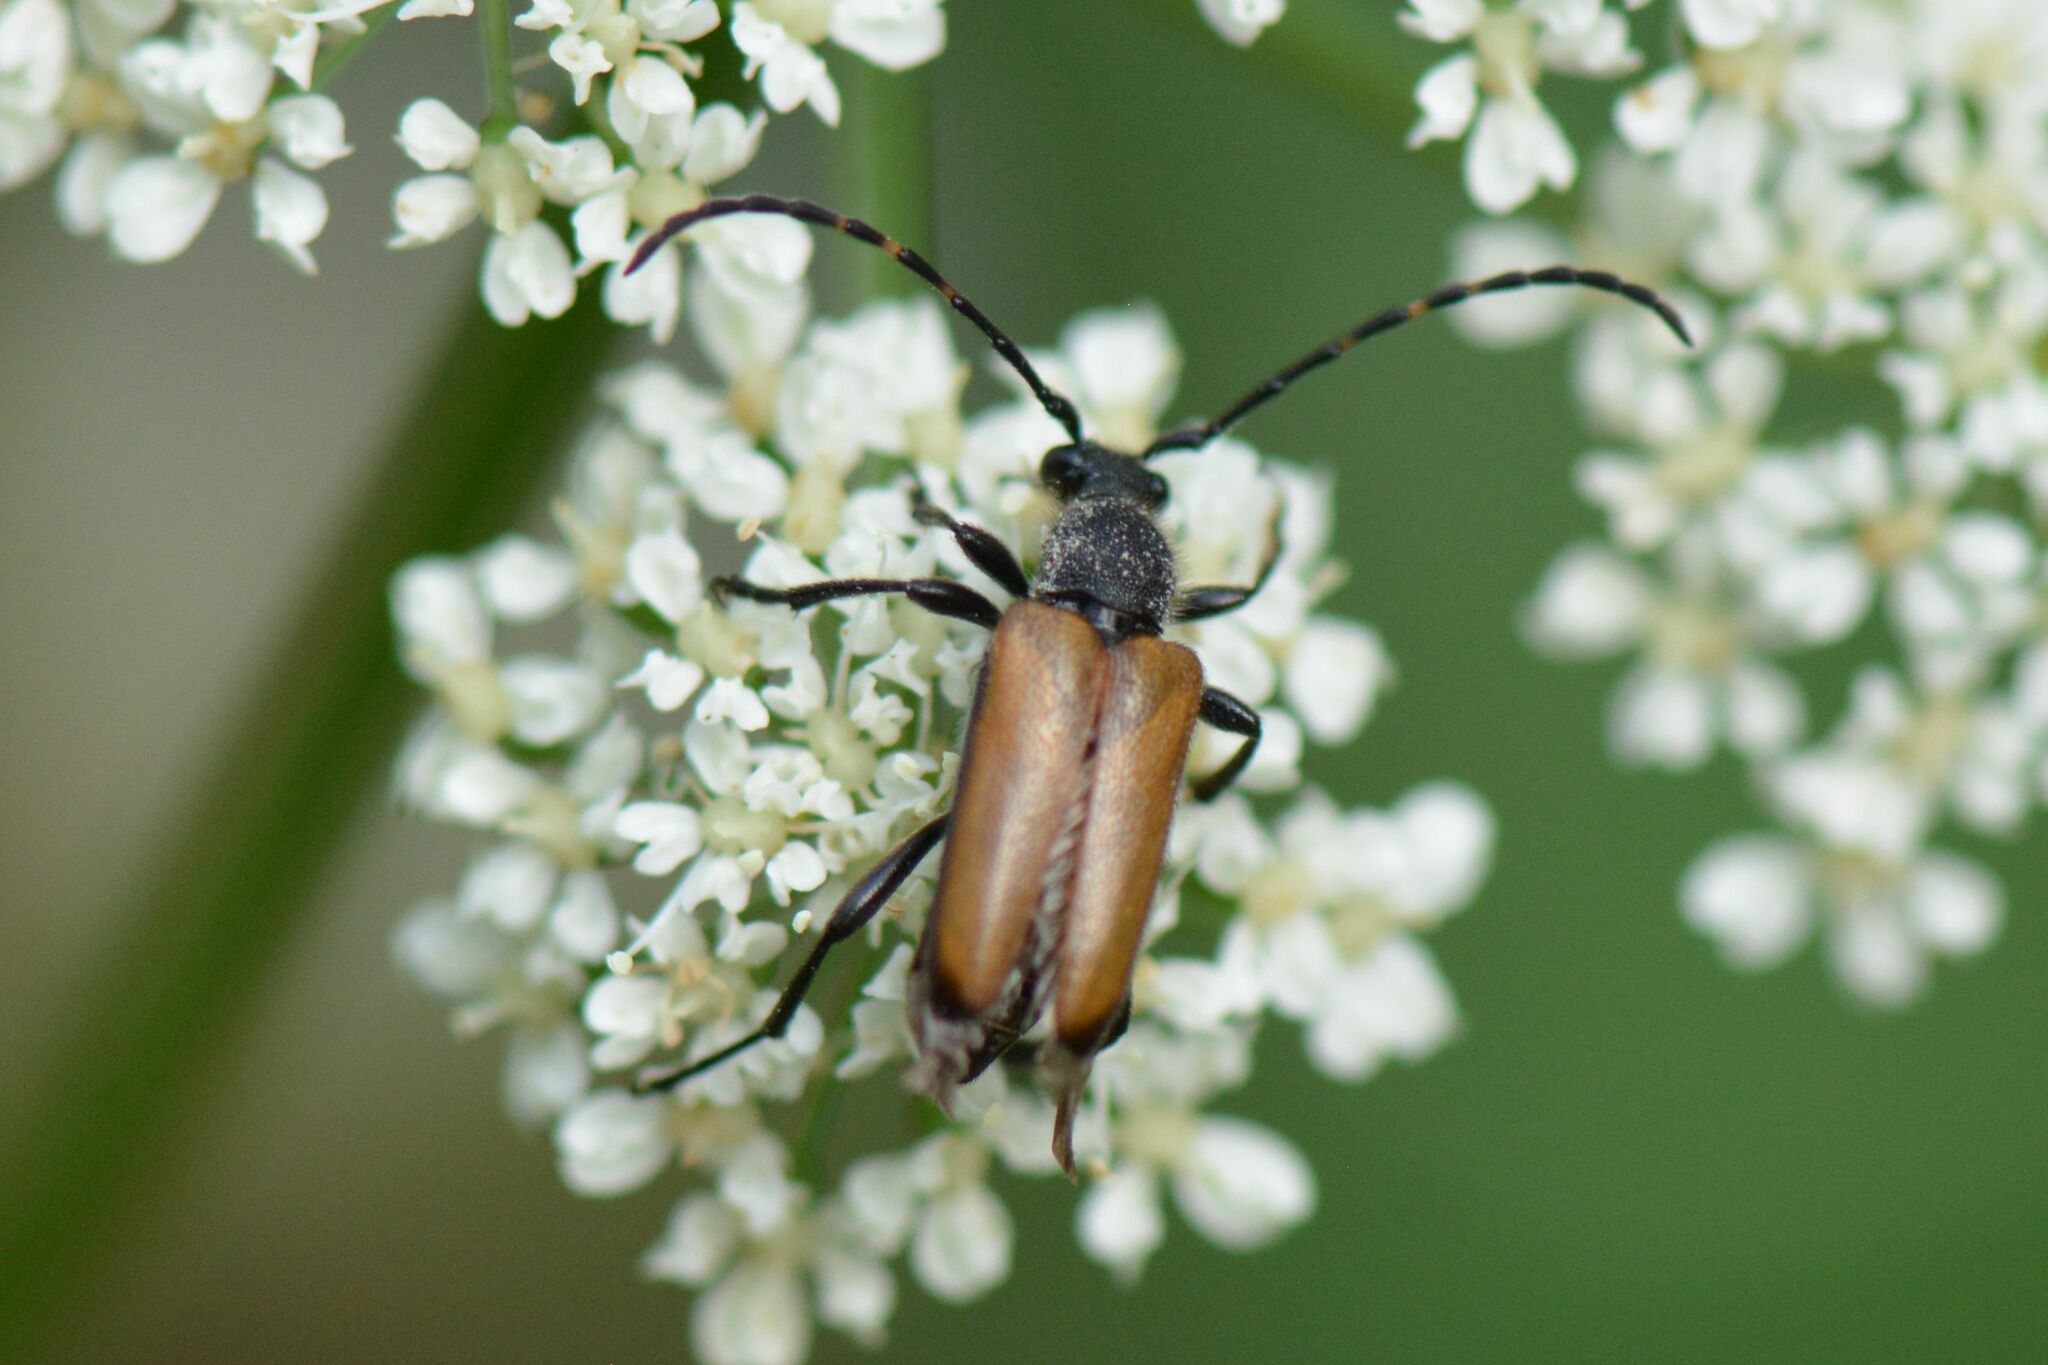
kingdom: Animalia
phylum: Arthropoda
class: Insecta
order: Coleoptera
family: Cerambycidae
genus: Paracorymbia
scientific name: Paracorymbia maculicornis
